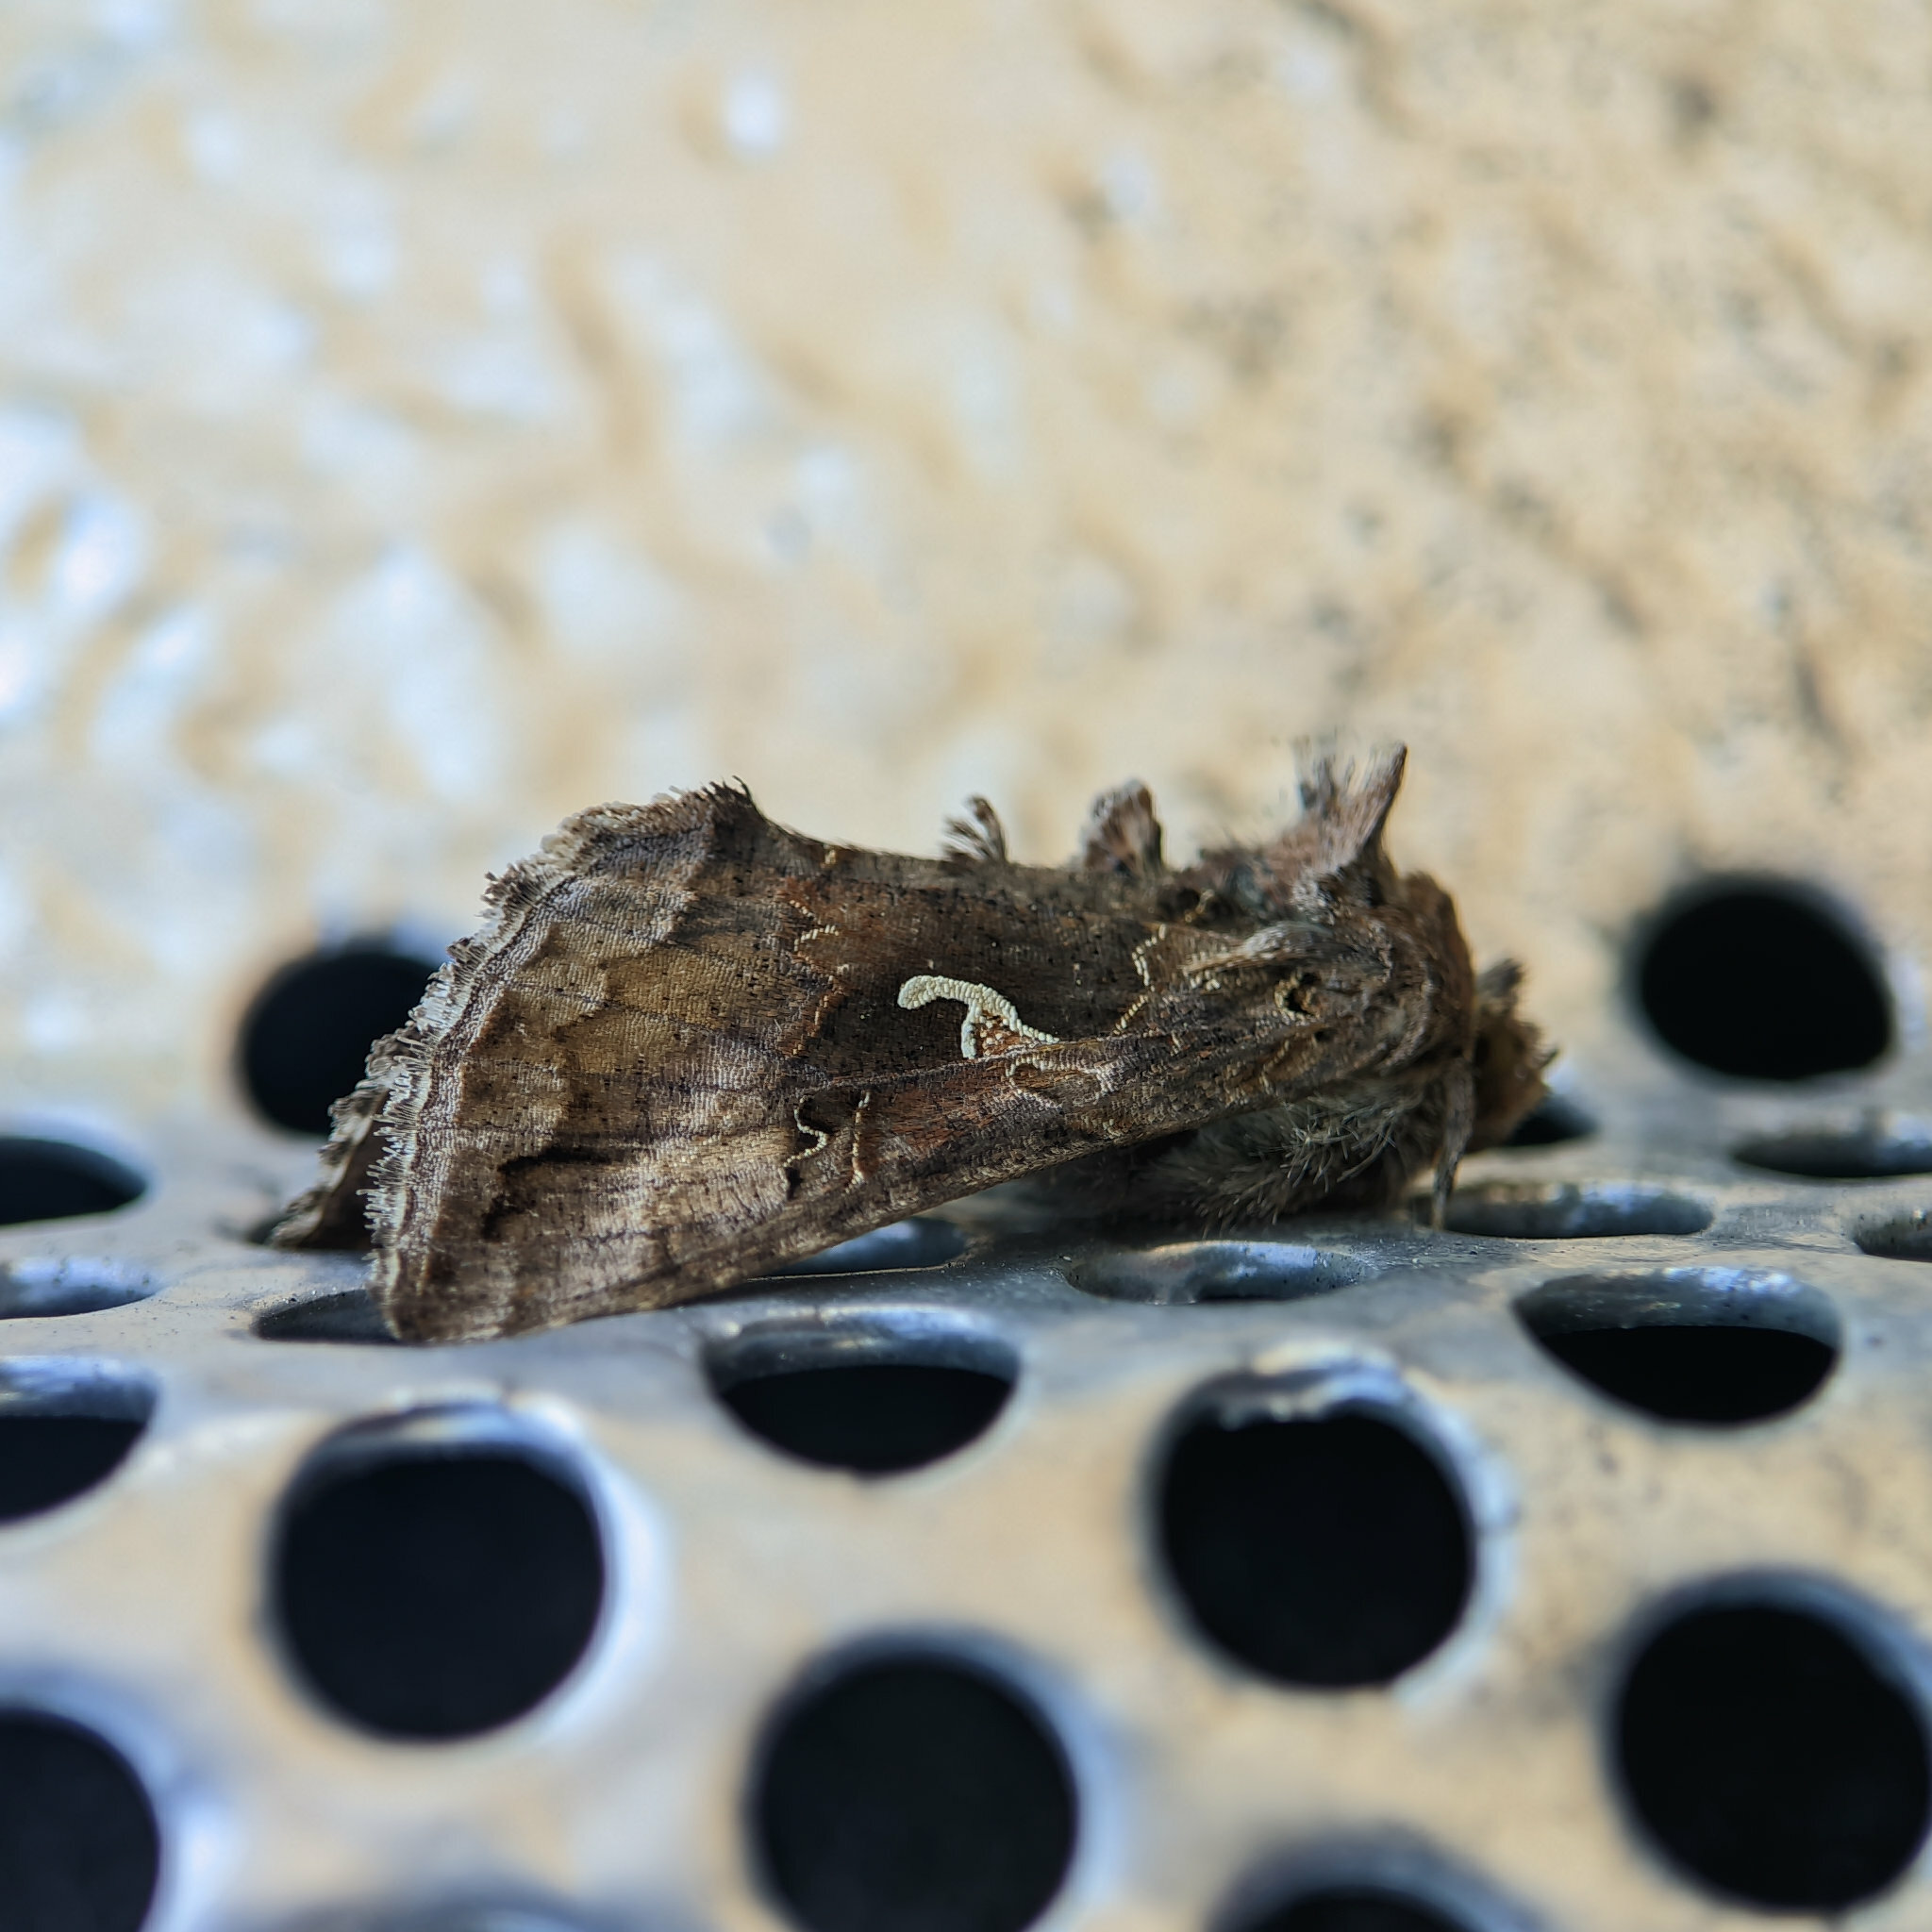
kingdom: Animalia
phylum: Arthropoda
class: Insecta
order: Lepidoptera
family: Noctuidae
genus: Autographa
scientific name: Autographa gamma
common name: Silver y
